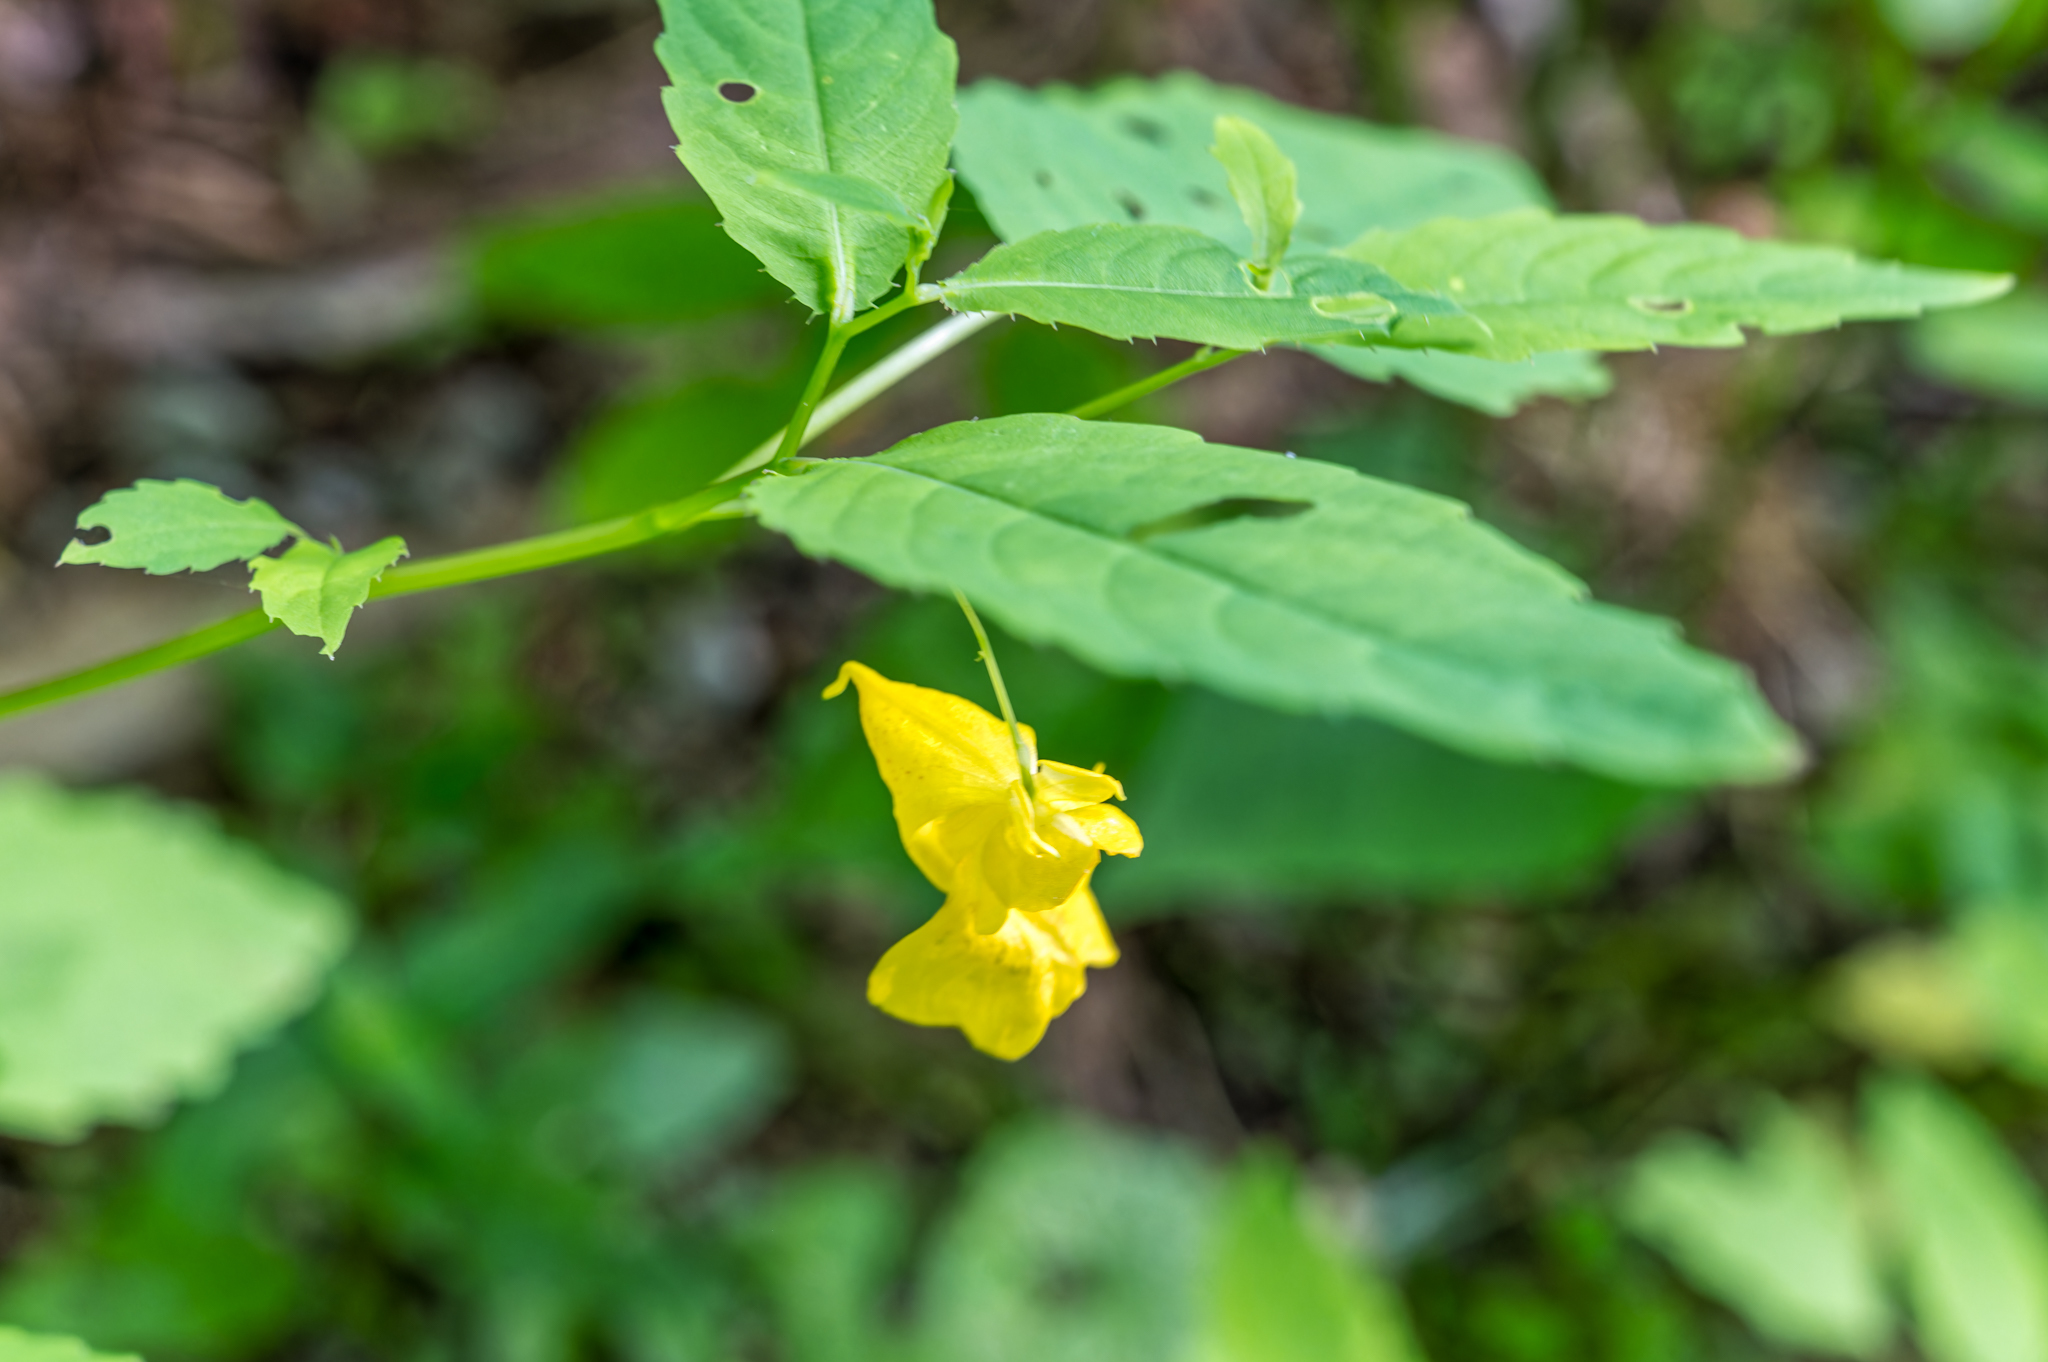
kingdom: Plantae
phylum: Tracheophyta
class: Magnoliopsida
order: Ericales
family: Balsaminaceae
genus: Impatiens
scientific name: Impatiens pallida
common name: Pale snapweed
